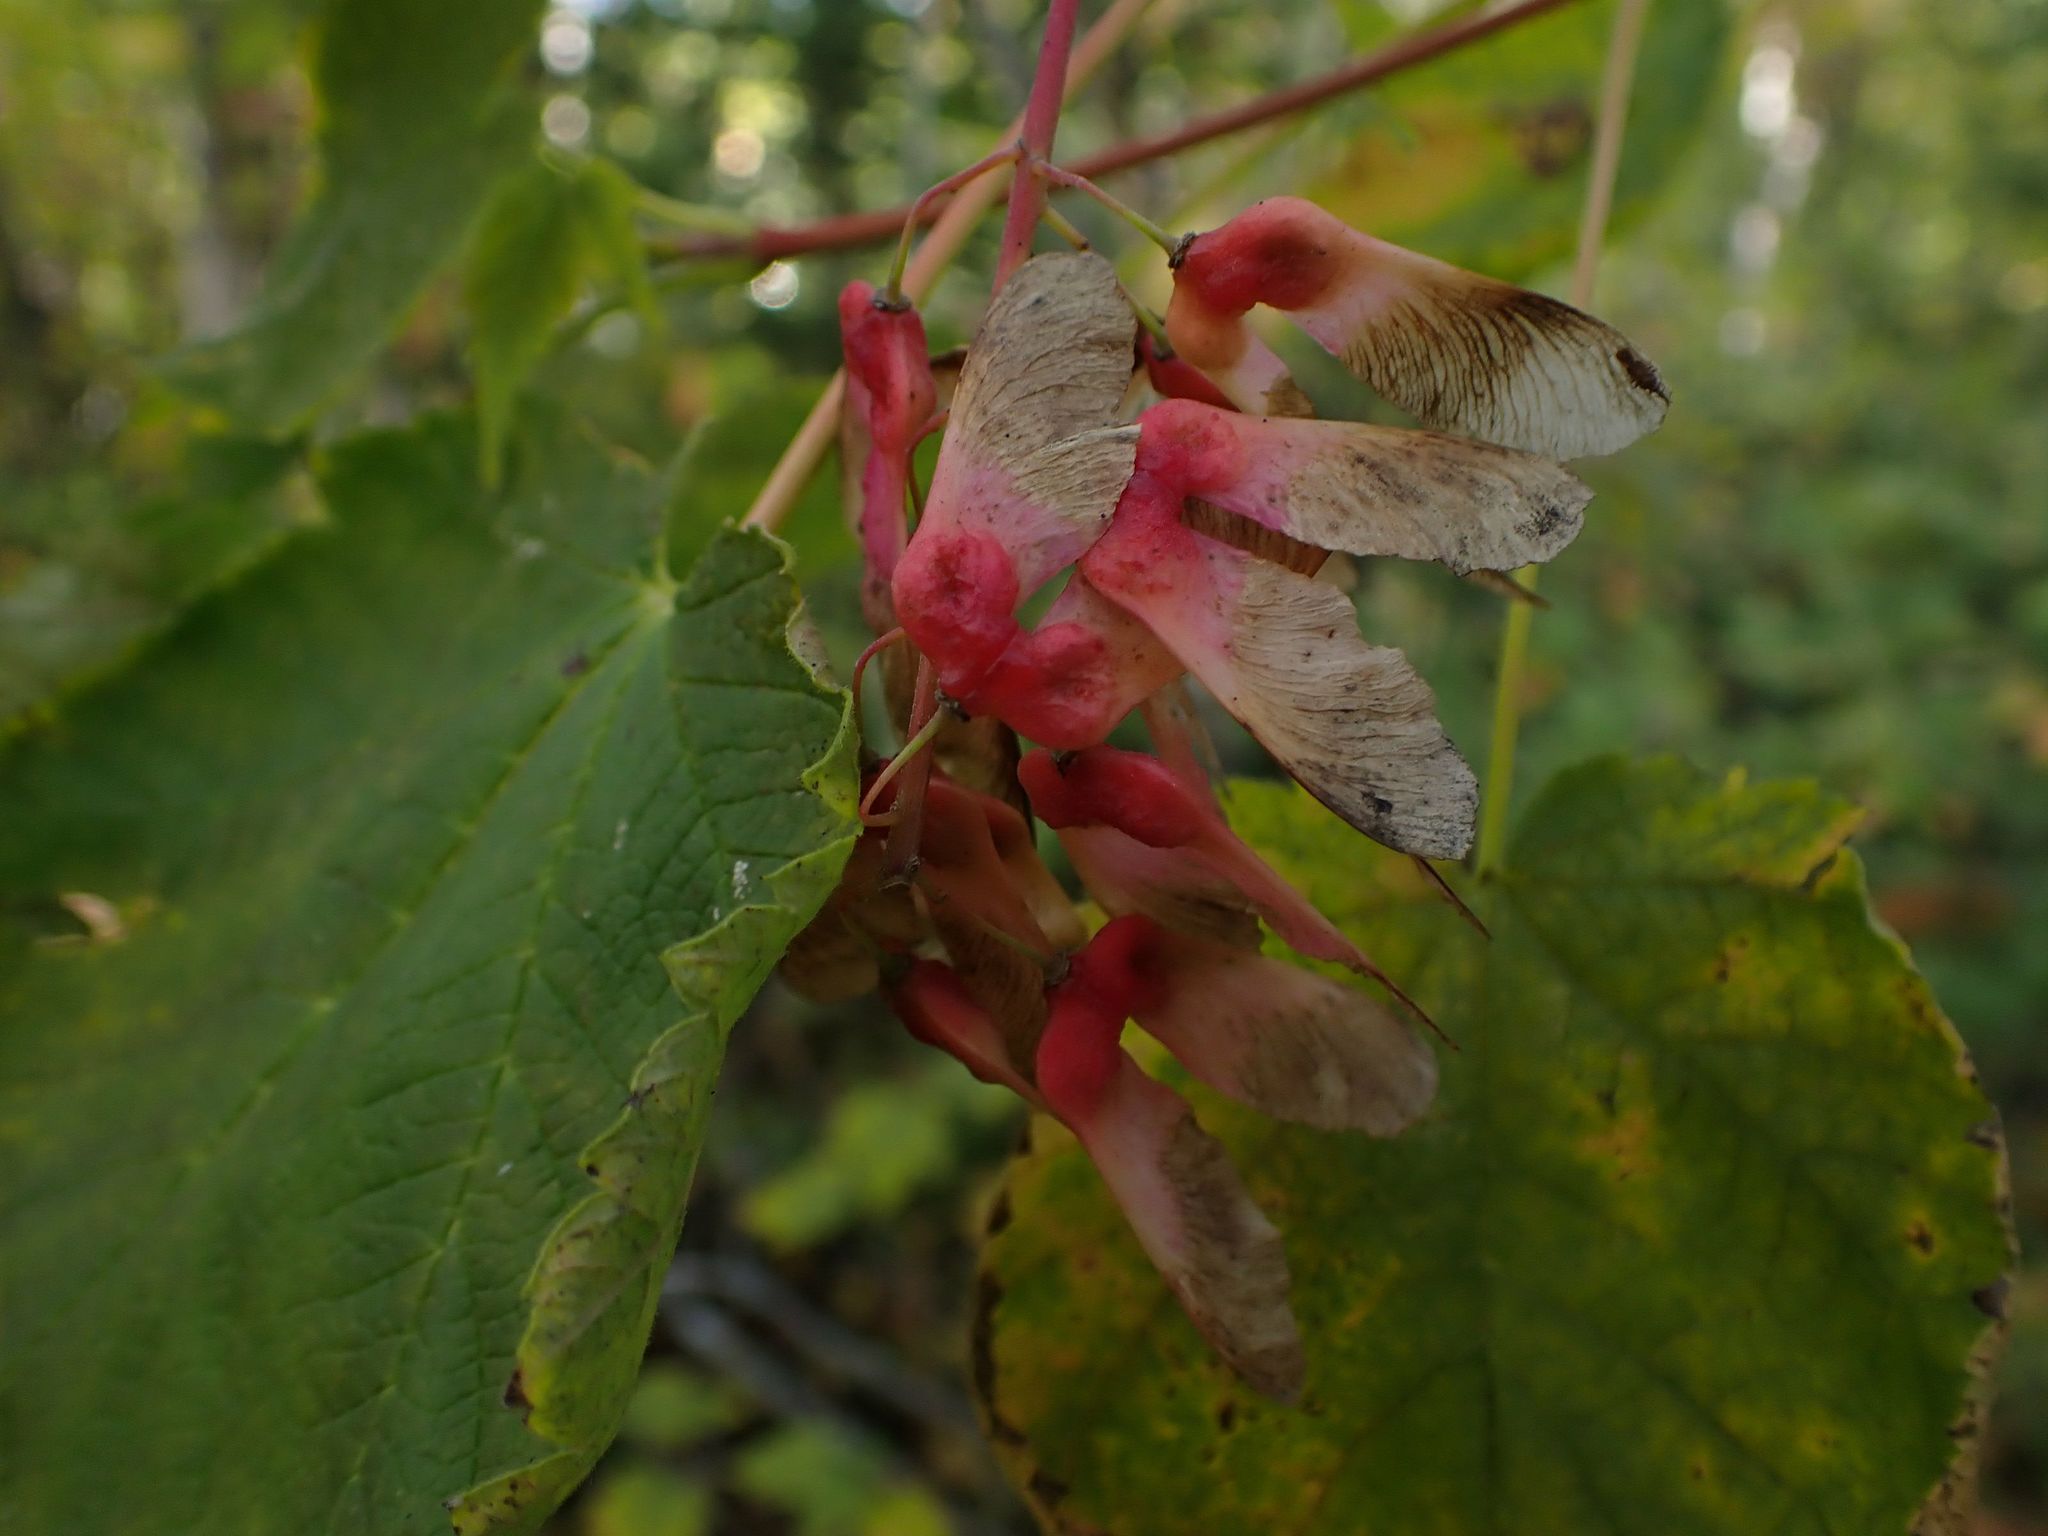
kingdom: Plantae
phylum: Tracheophyta
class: Magnoliopsida
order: Sapindales
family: Sapindaceae
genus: Acer
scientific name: Acer spicatum
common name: Mountain maple
